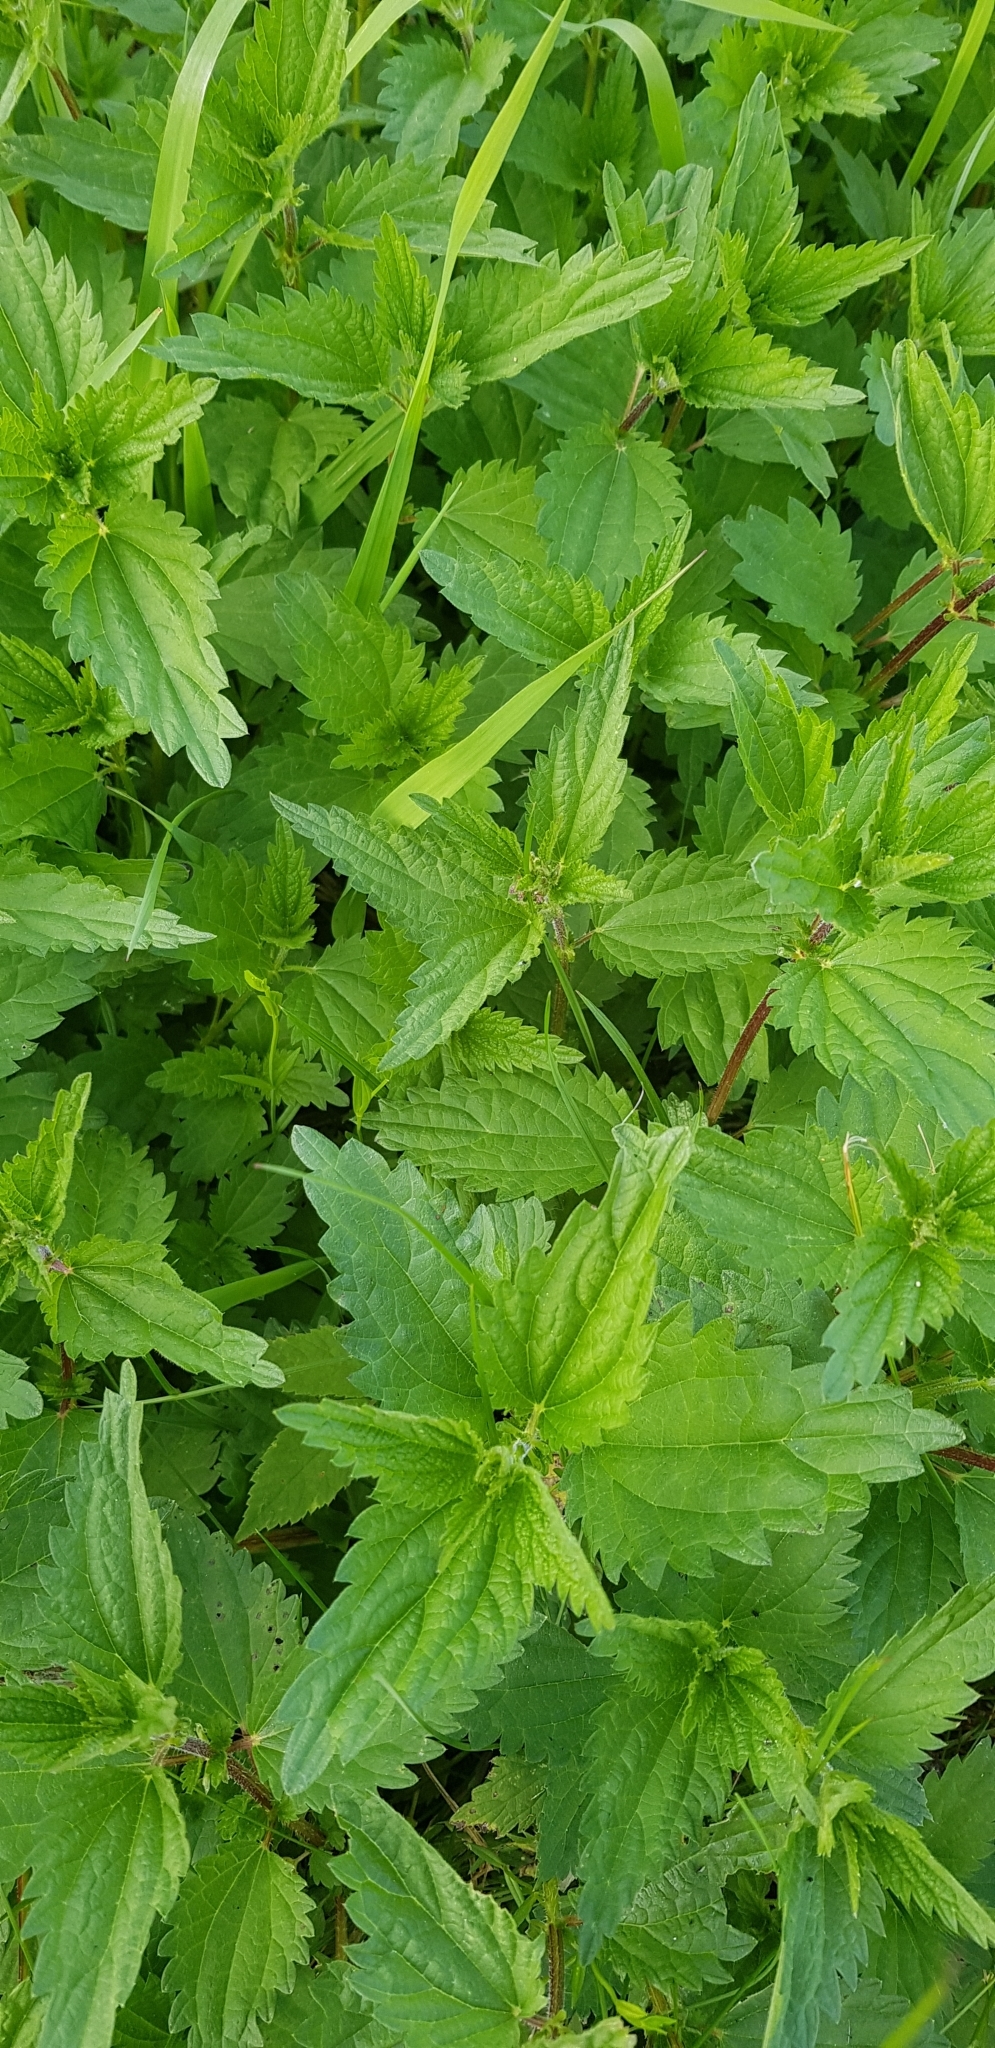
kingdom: Plantae
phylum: Tracheophyta
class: Magnoliopsida
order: Rosales
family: Urticaceae
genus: Urtica
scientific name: Urtica dioica
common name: Common nettle
